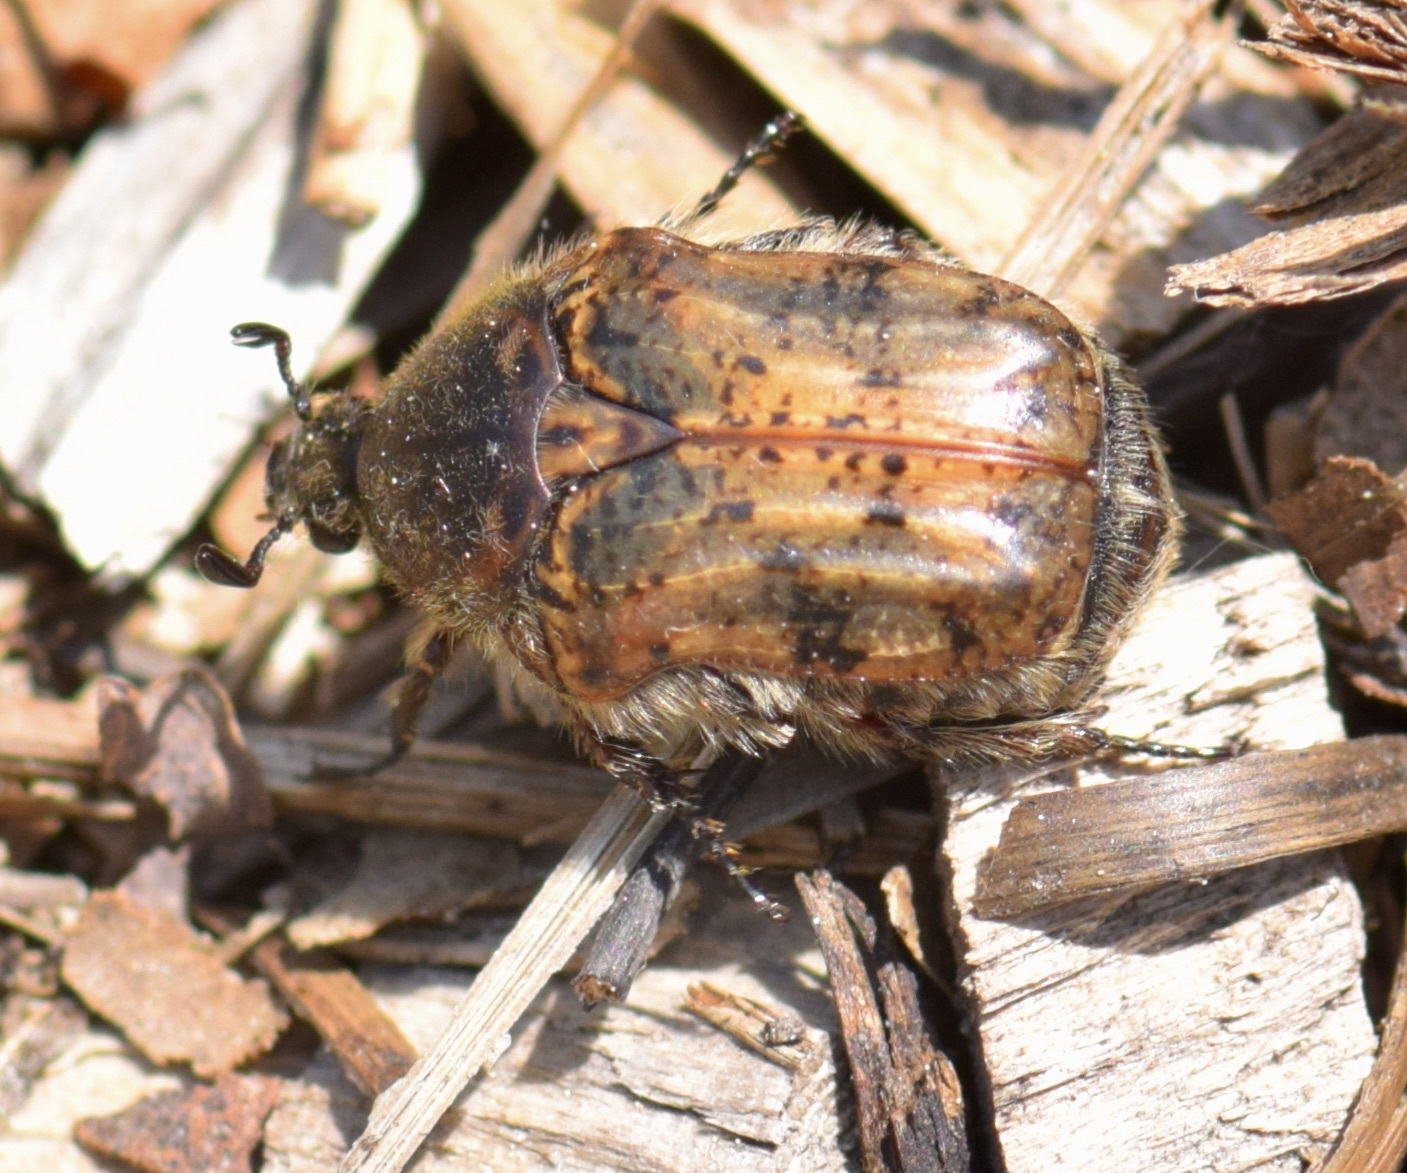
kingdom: Animalia
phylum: Arthropoda
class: Insecta
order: Coleoptera
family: Scarabaeidae
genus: Euphoria
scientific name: Euphoria inda
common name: Bumble flower beetle
